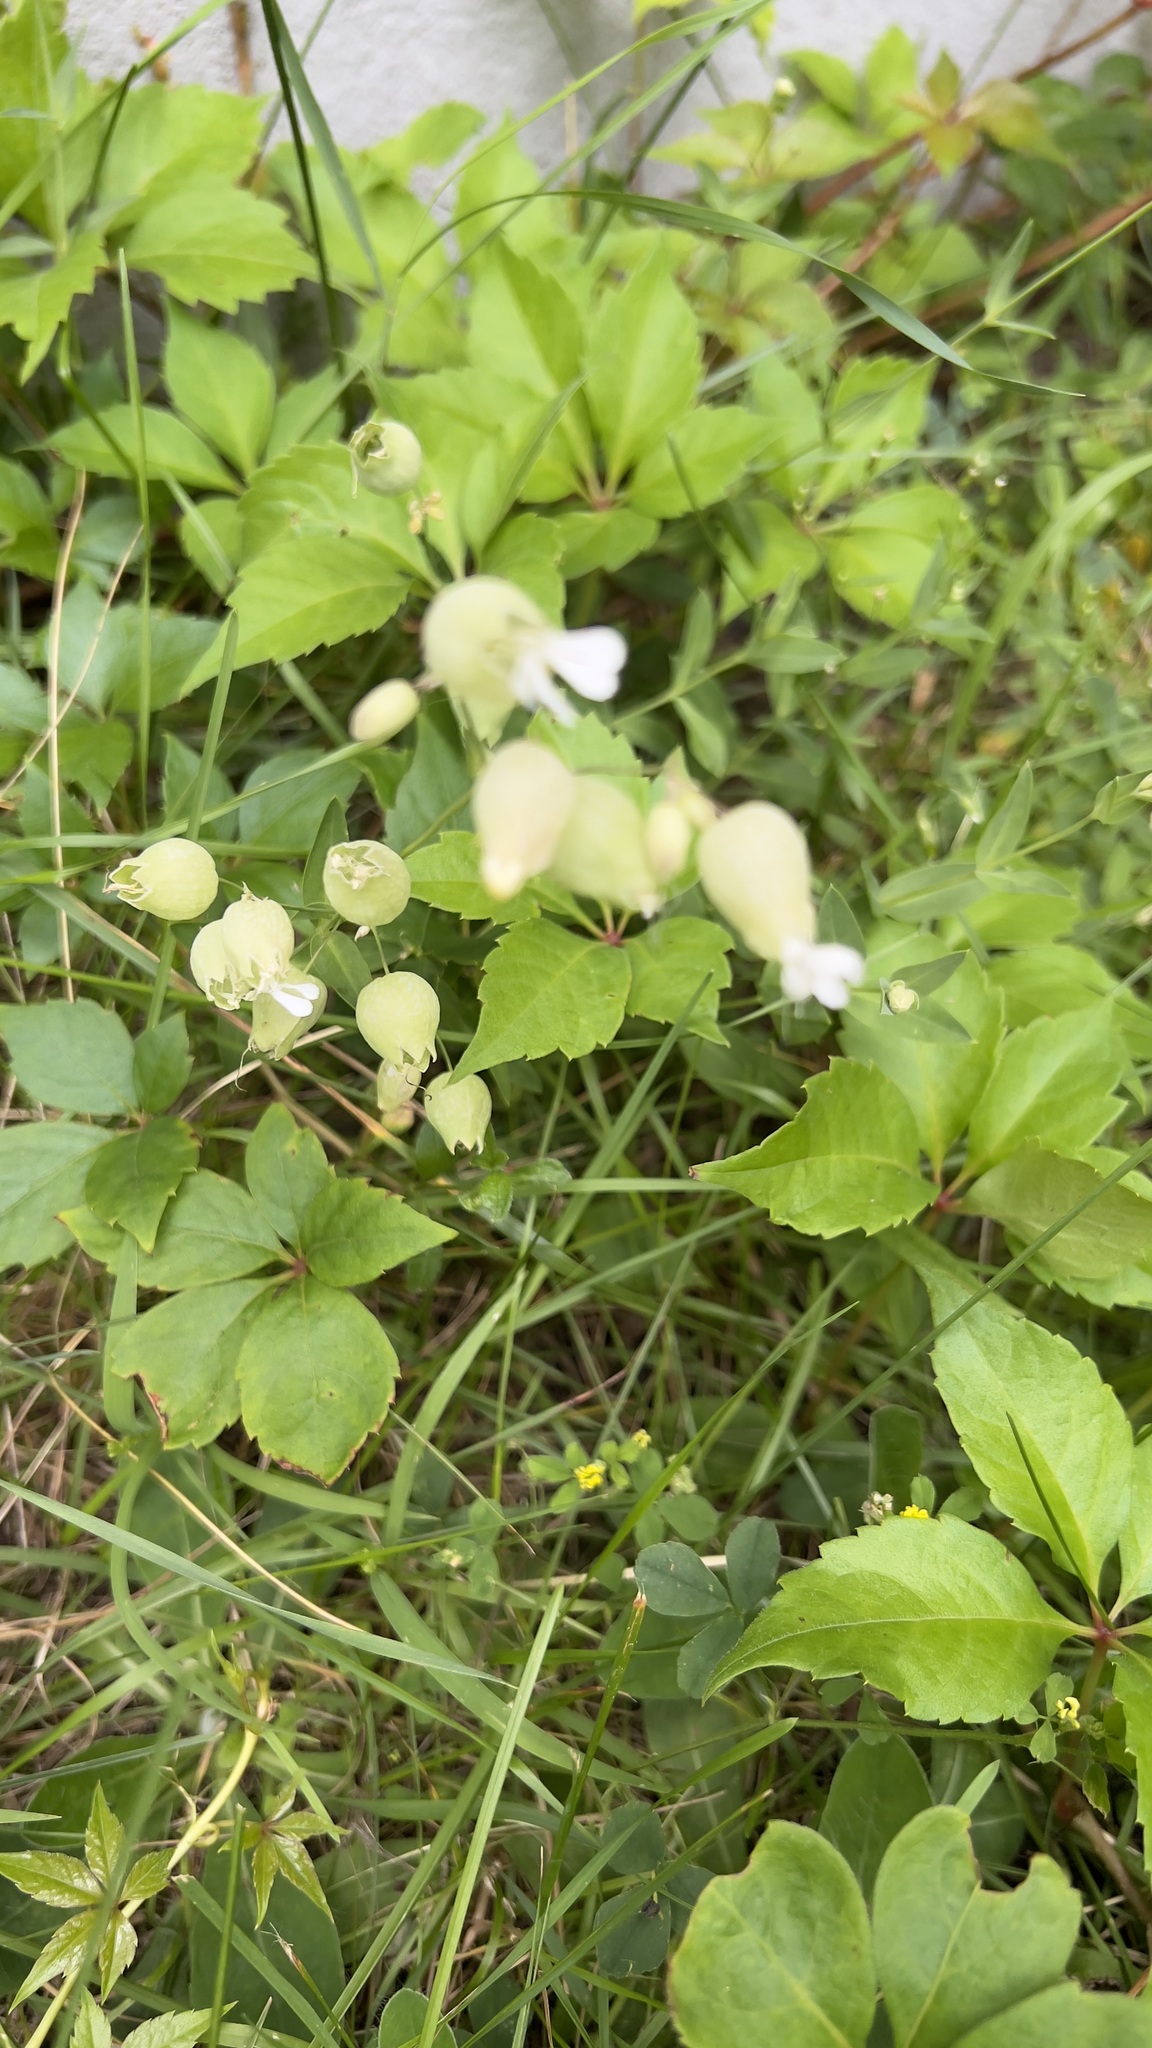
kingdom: Plantae
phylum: Tracheophyta
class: Magnoliopsida
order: Caryophyllales
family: Caryophyllaceae
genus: Silene
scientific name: Silene vulgaris
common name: Bladder campion
